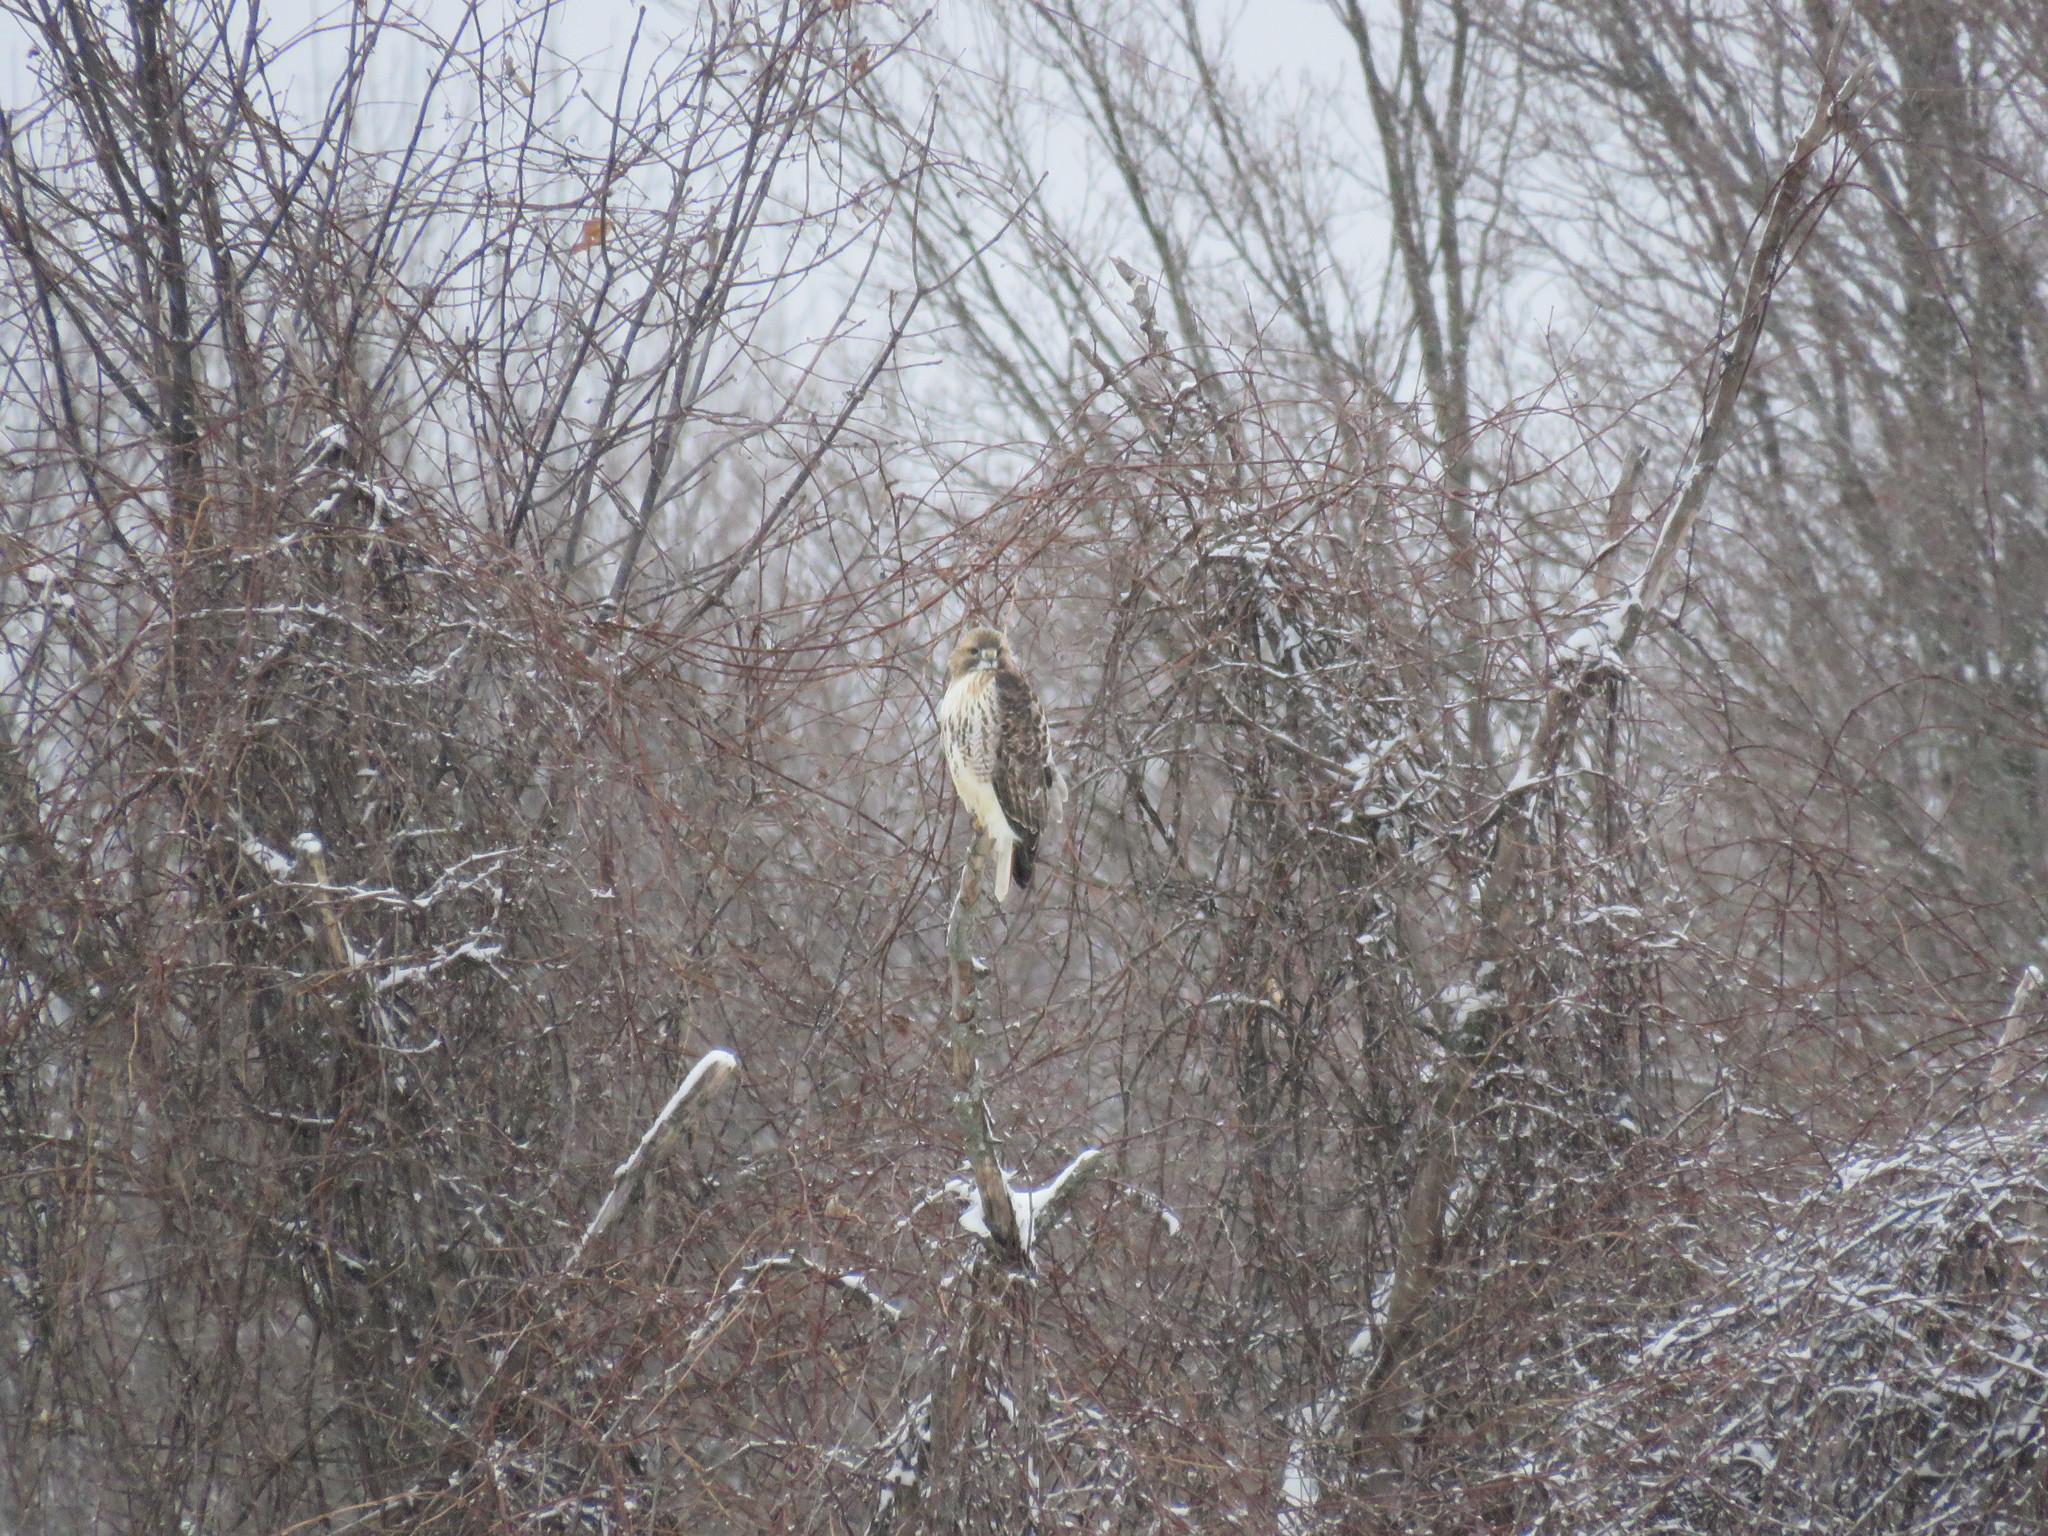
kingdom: Animalia
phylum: Chordata
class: Aves
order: Accipitriformes
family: Accipitridae
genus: Buteo
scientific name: Buteo jamaicensis
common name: Red-tailed hawk
